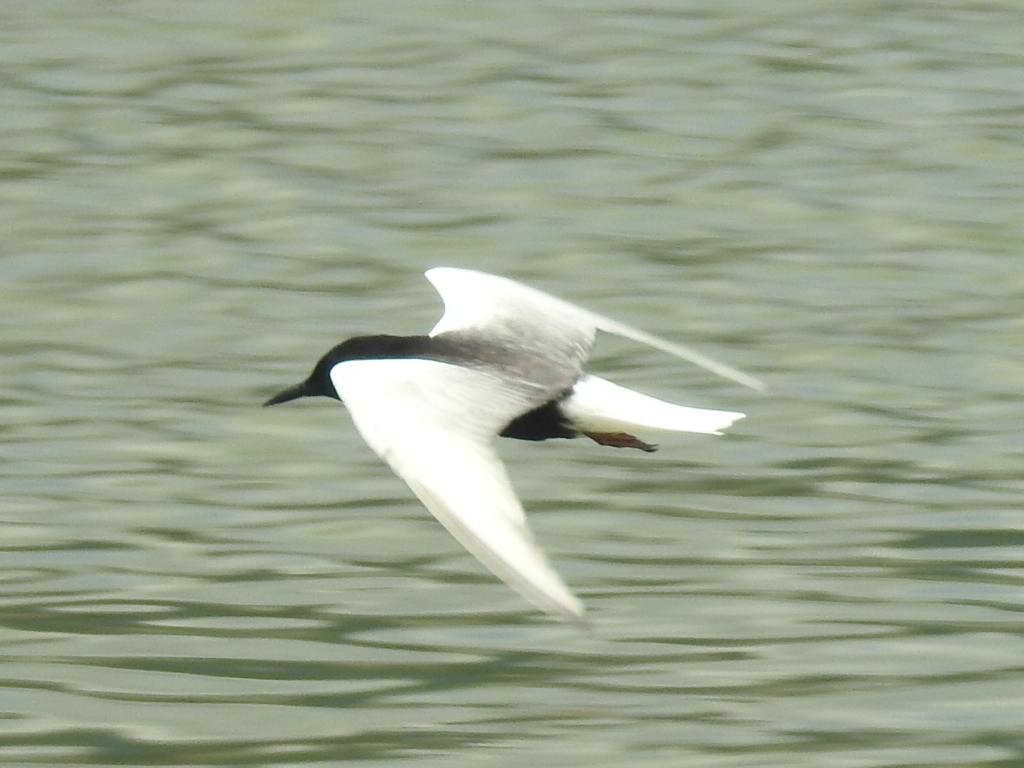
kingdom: Animalia
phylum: Chordata
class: Aves
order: Charadriiformes
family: Laridae
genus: Chlidonias
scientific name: Chlidonias leucopterus
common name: White-winged tern
